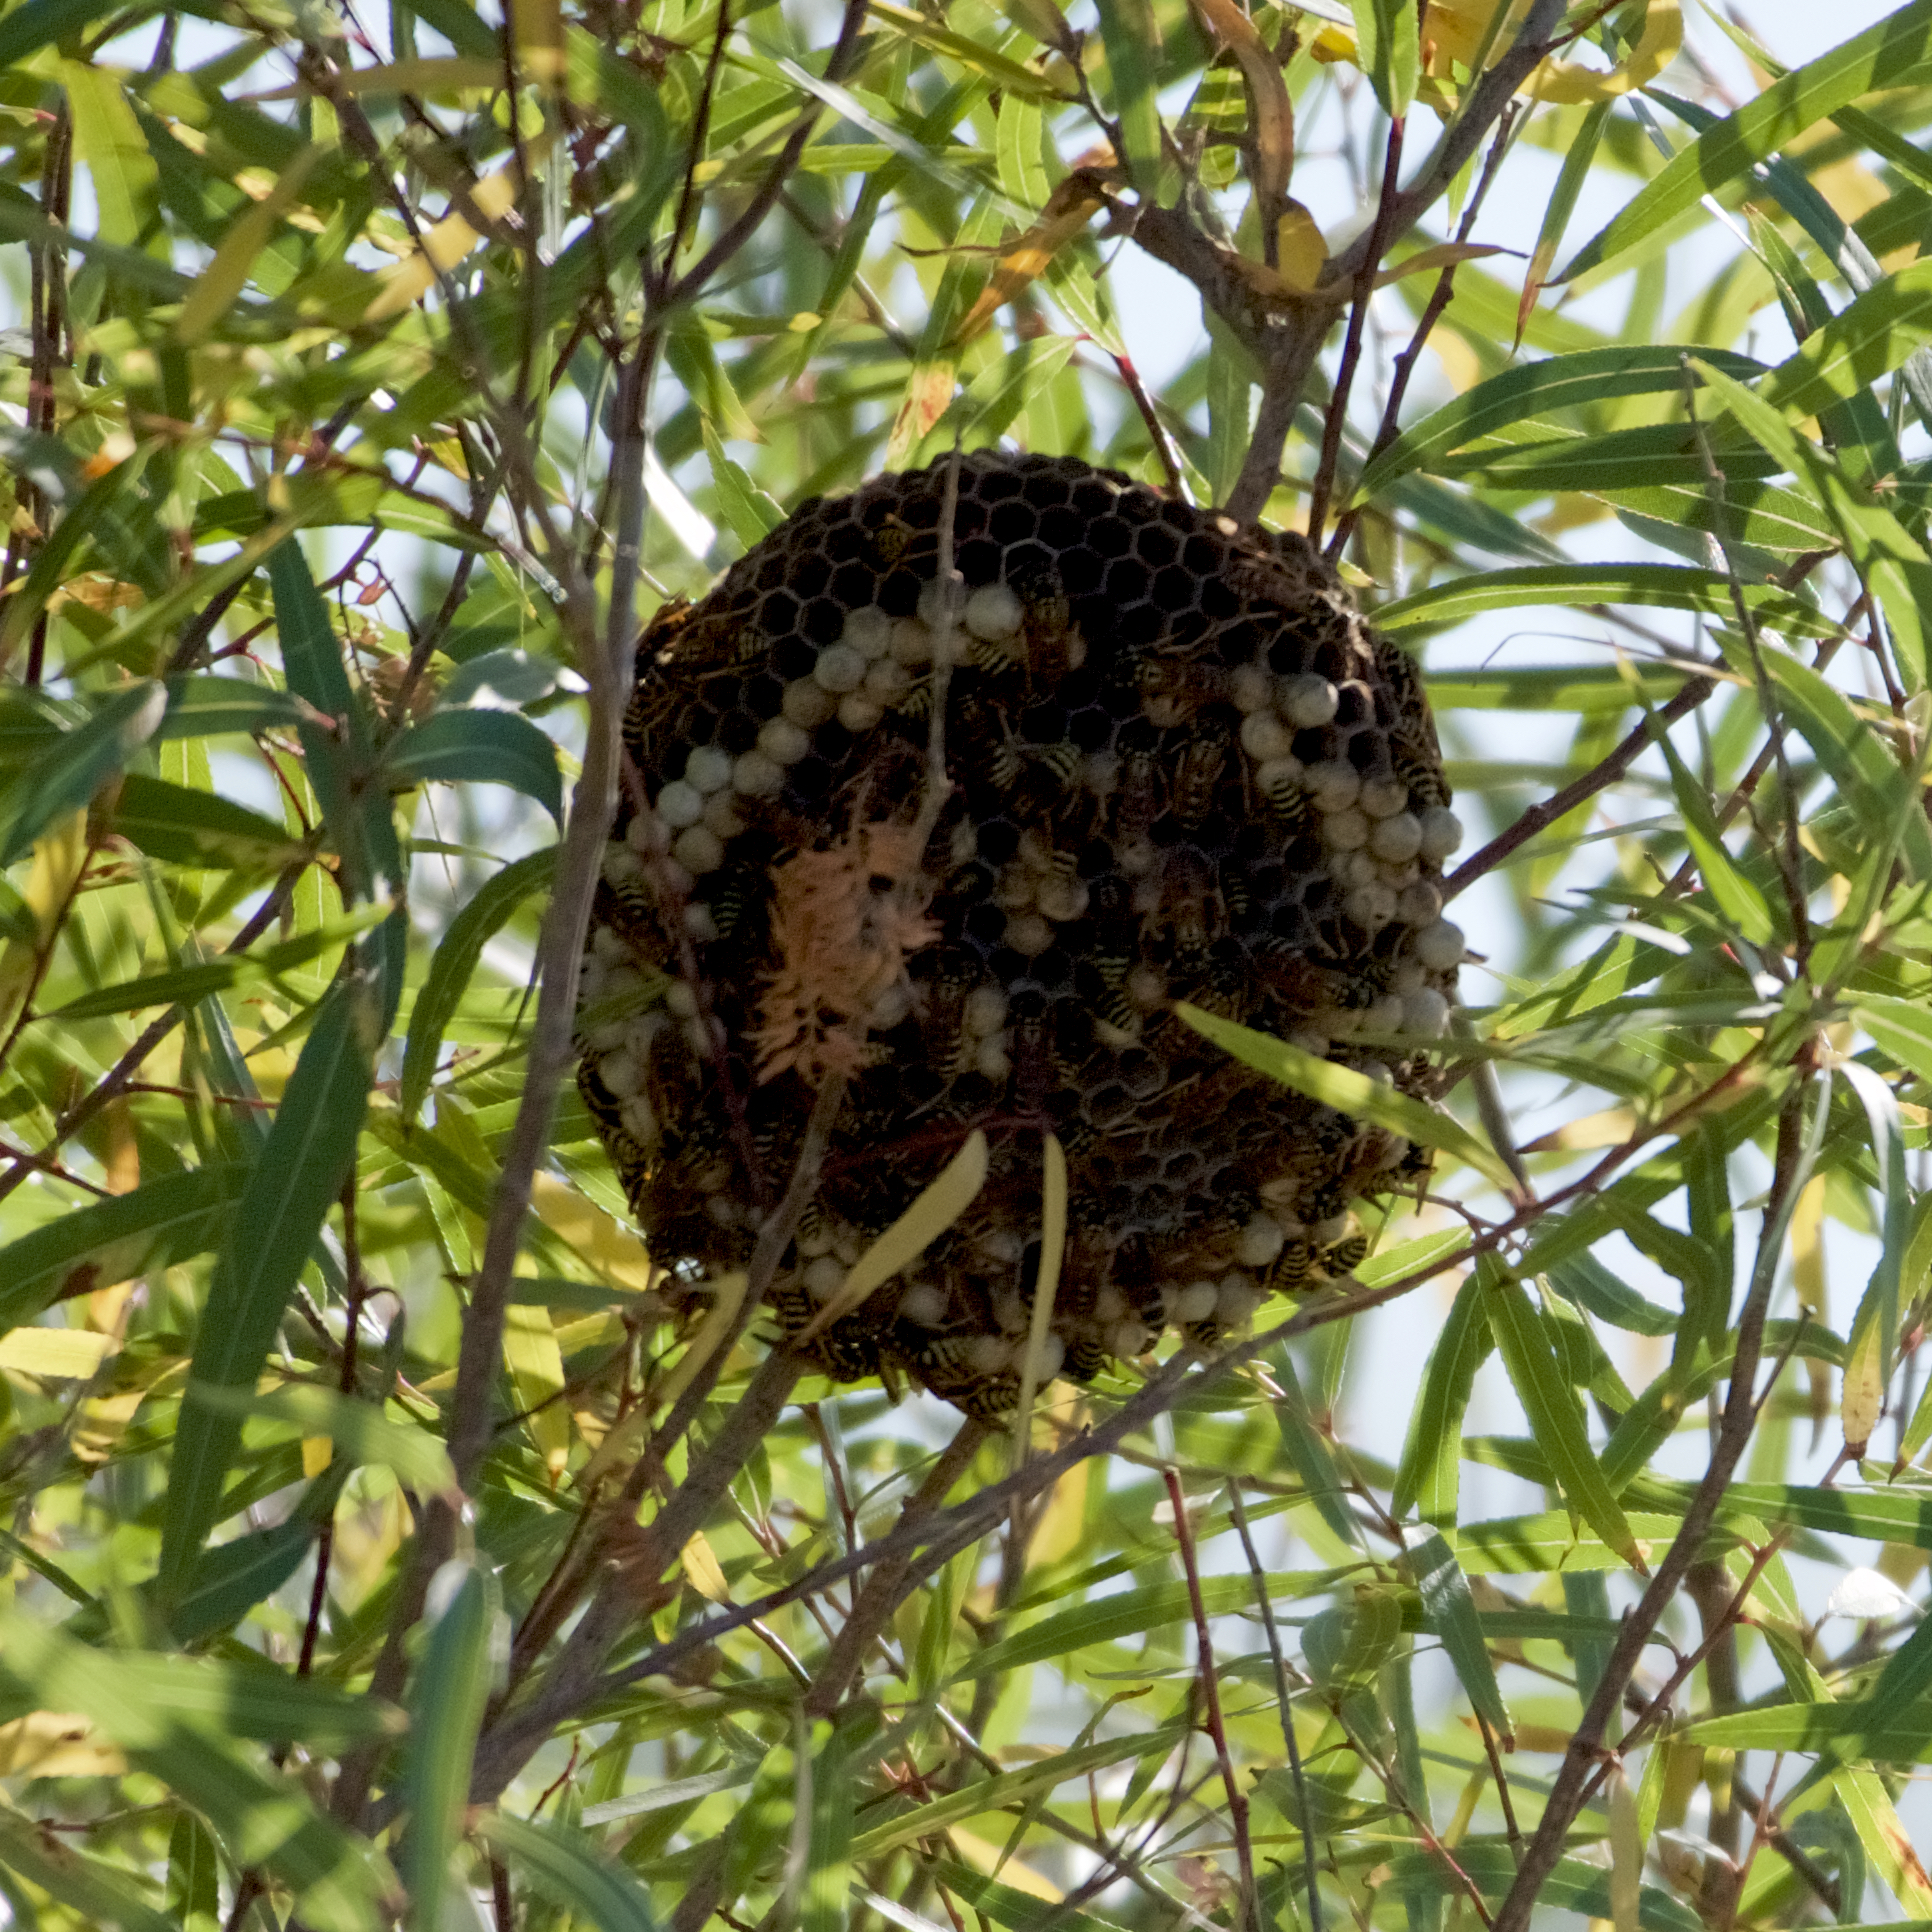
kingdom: Animalia
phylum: Arthropoda
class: Insecta
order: Hymenoptera
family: Eumenidae
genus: Polistes
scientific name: Polistes dominula
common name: Paper wasp
